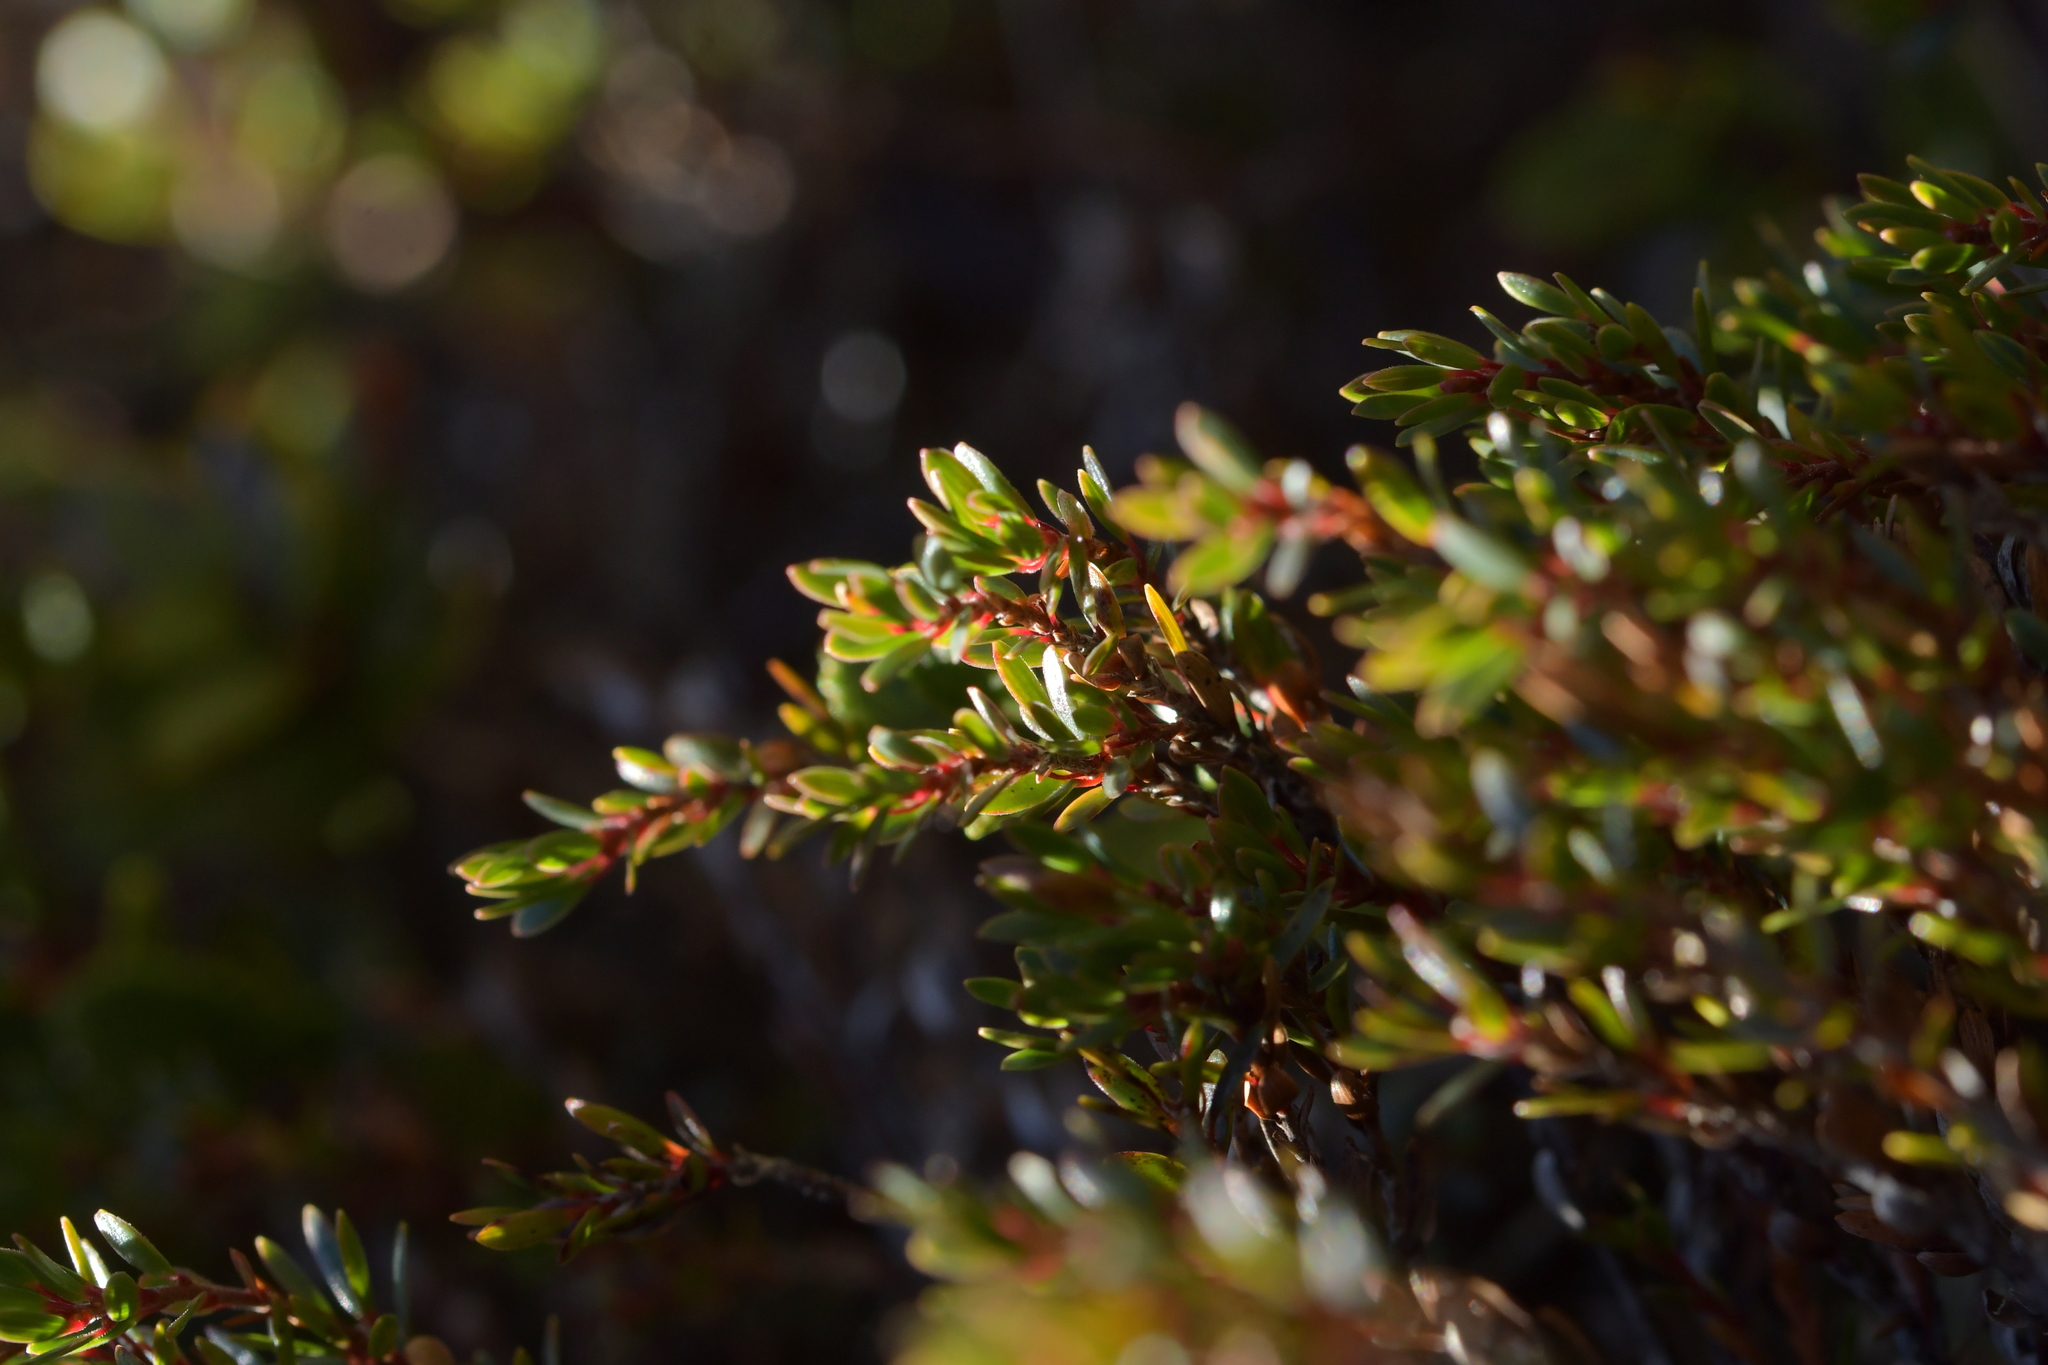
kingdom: Plantae
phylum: Tracheophyta
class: Magnoliopsida
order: Ericales
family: Ericaceae
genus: Pentachondra
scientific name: Pentachondra pumila
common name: Carpet-heath
